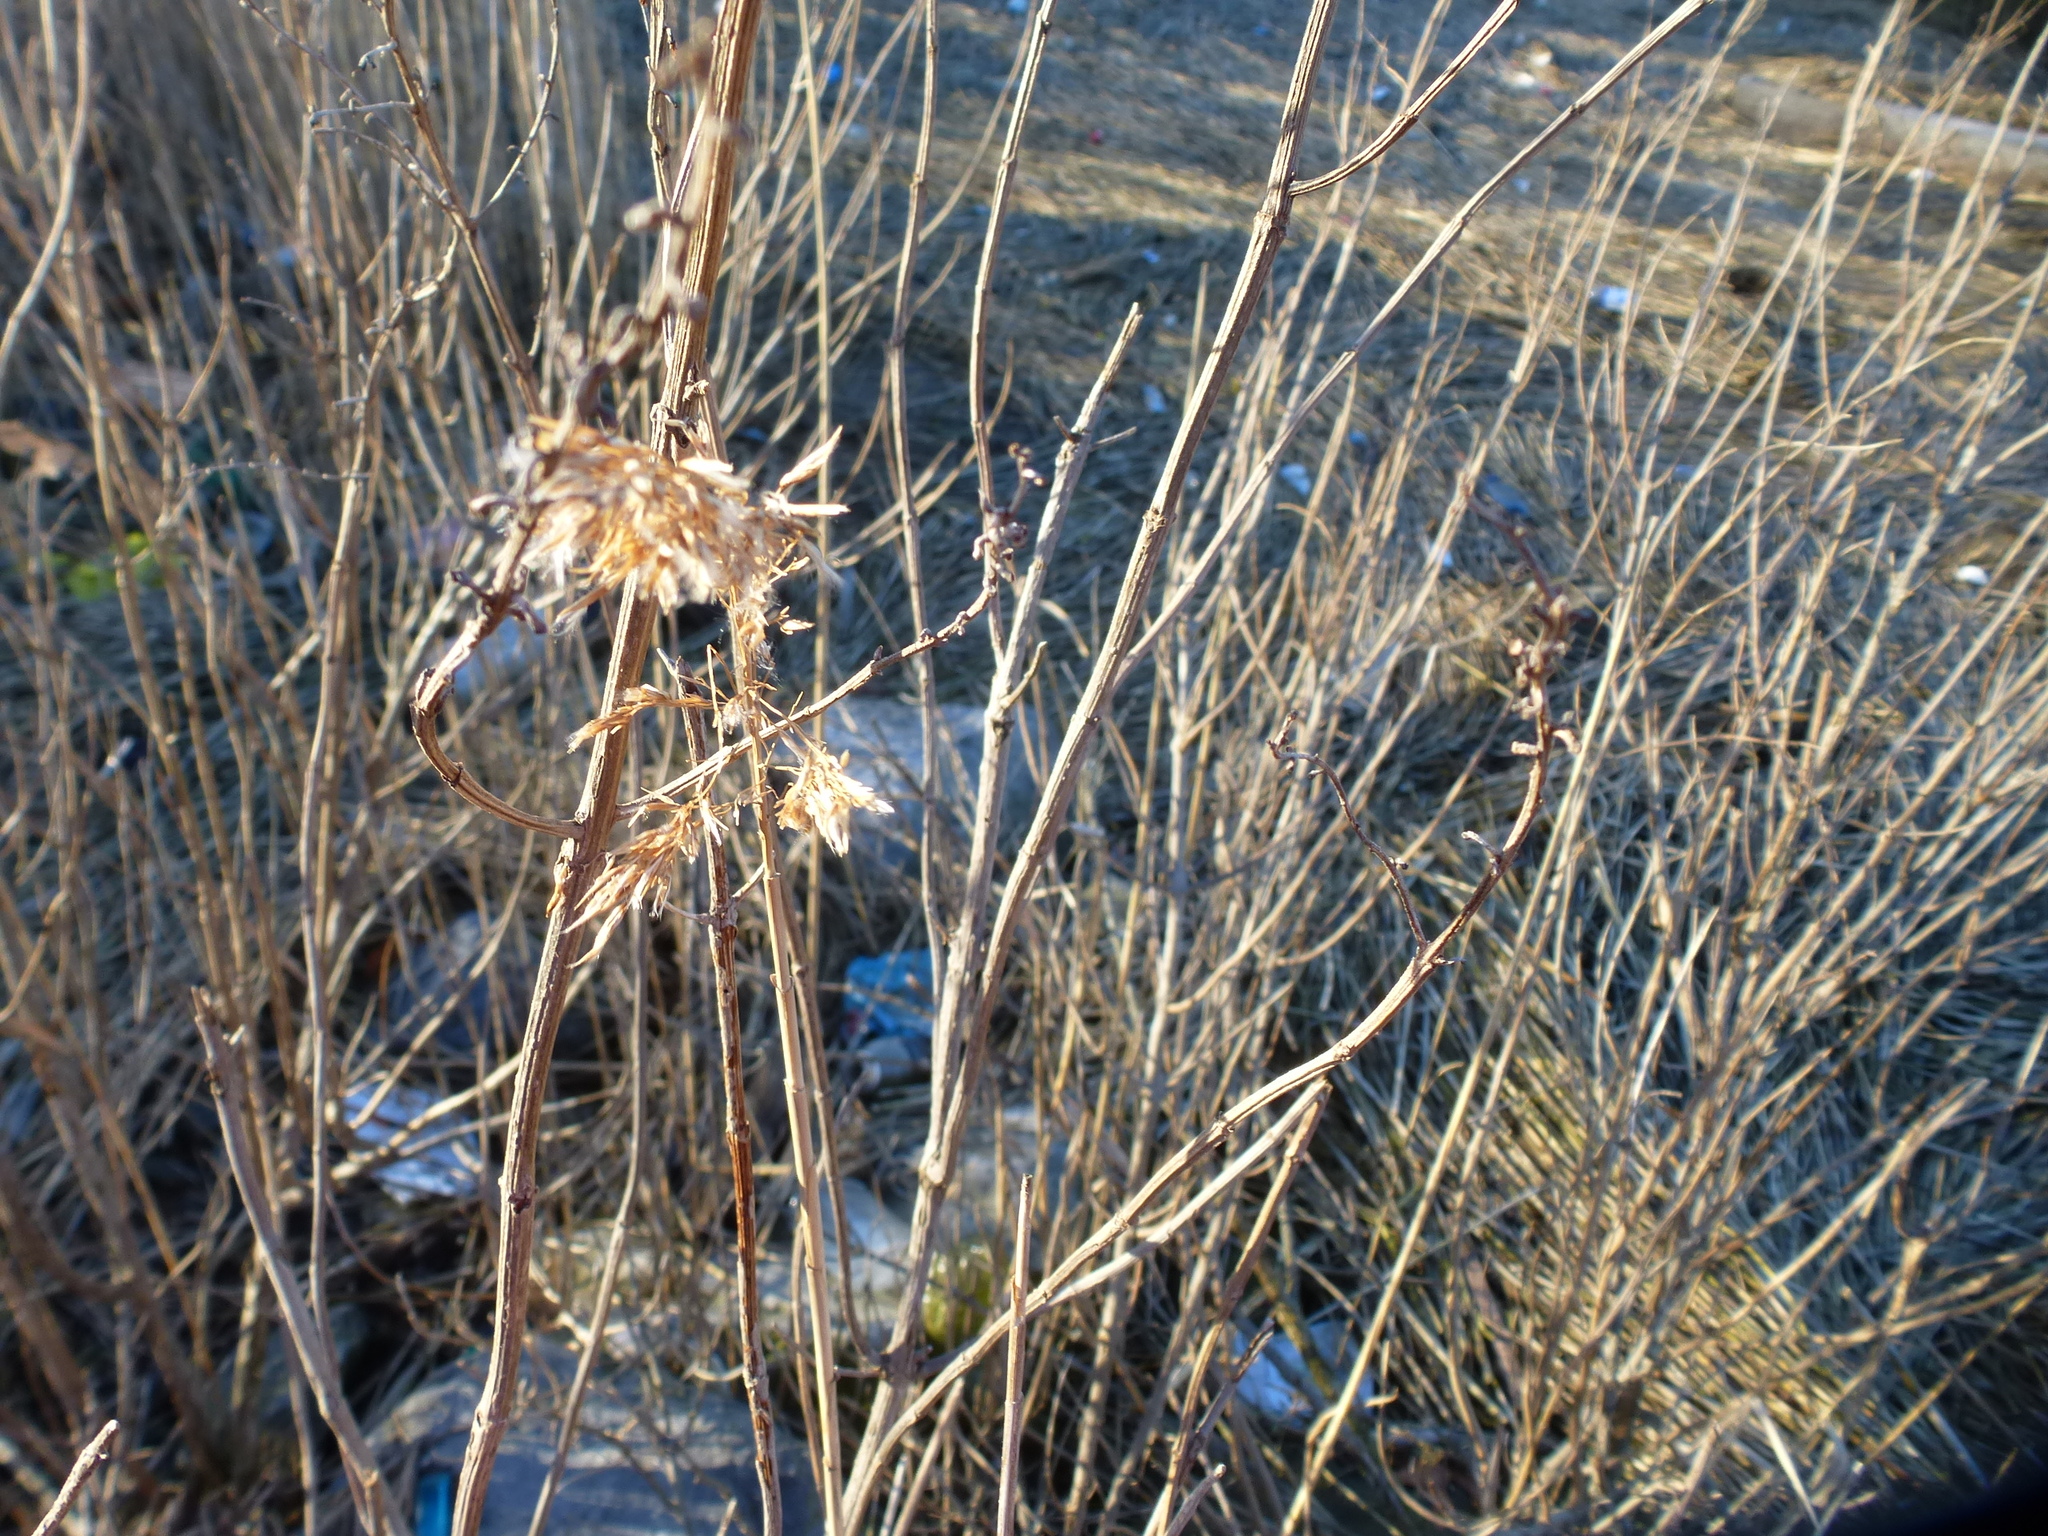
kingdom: Plantae
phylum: Tracheophyta
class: Liliopsida
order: Poales
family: Poaceae
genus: Phragmites
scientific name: Phragmites australis
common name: Common reed
